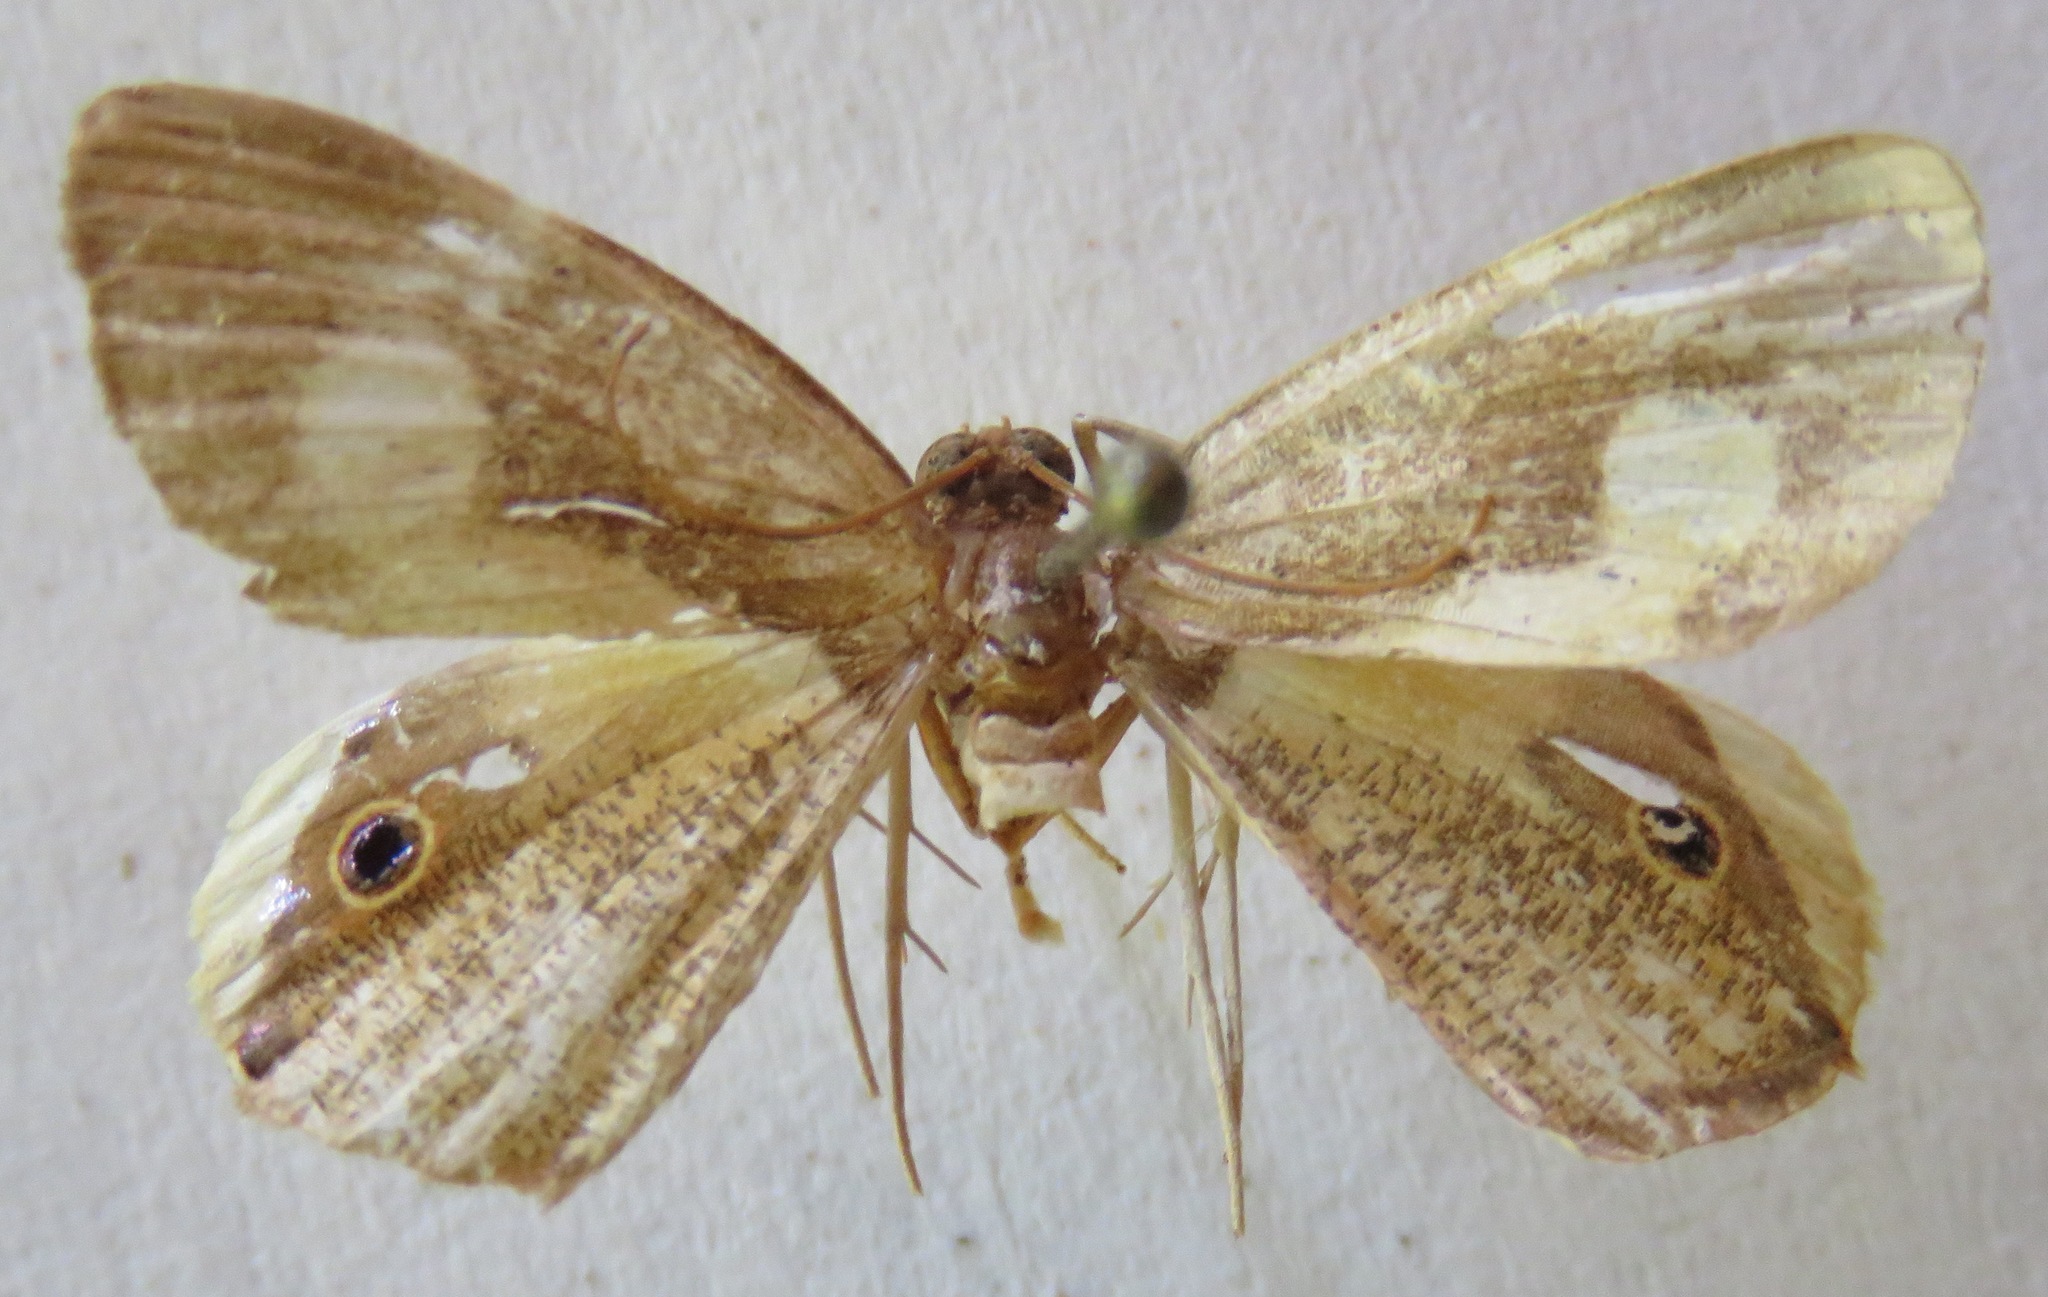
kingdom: Animalia
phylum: Arthropoda
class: Insecta
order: Lepidoptera
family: Geometridae
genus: Opisthoxia
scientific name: Opisthoxia molpadia
